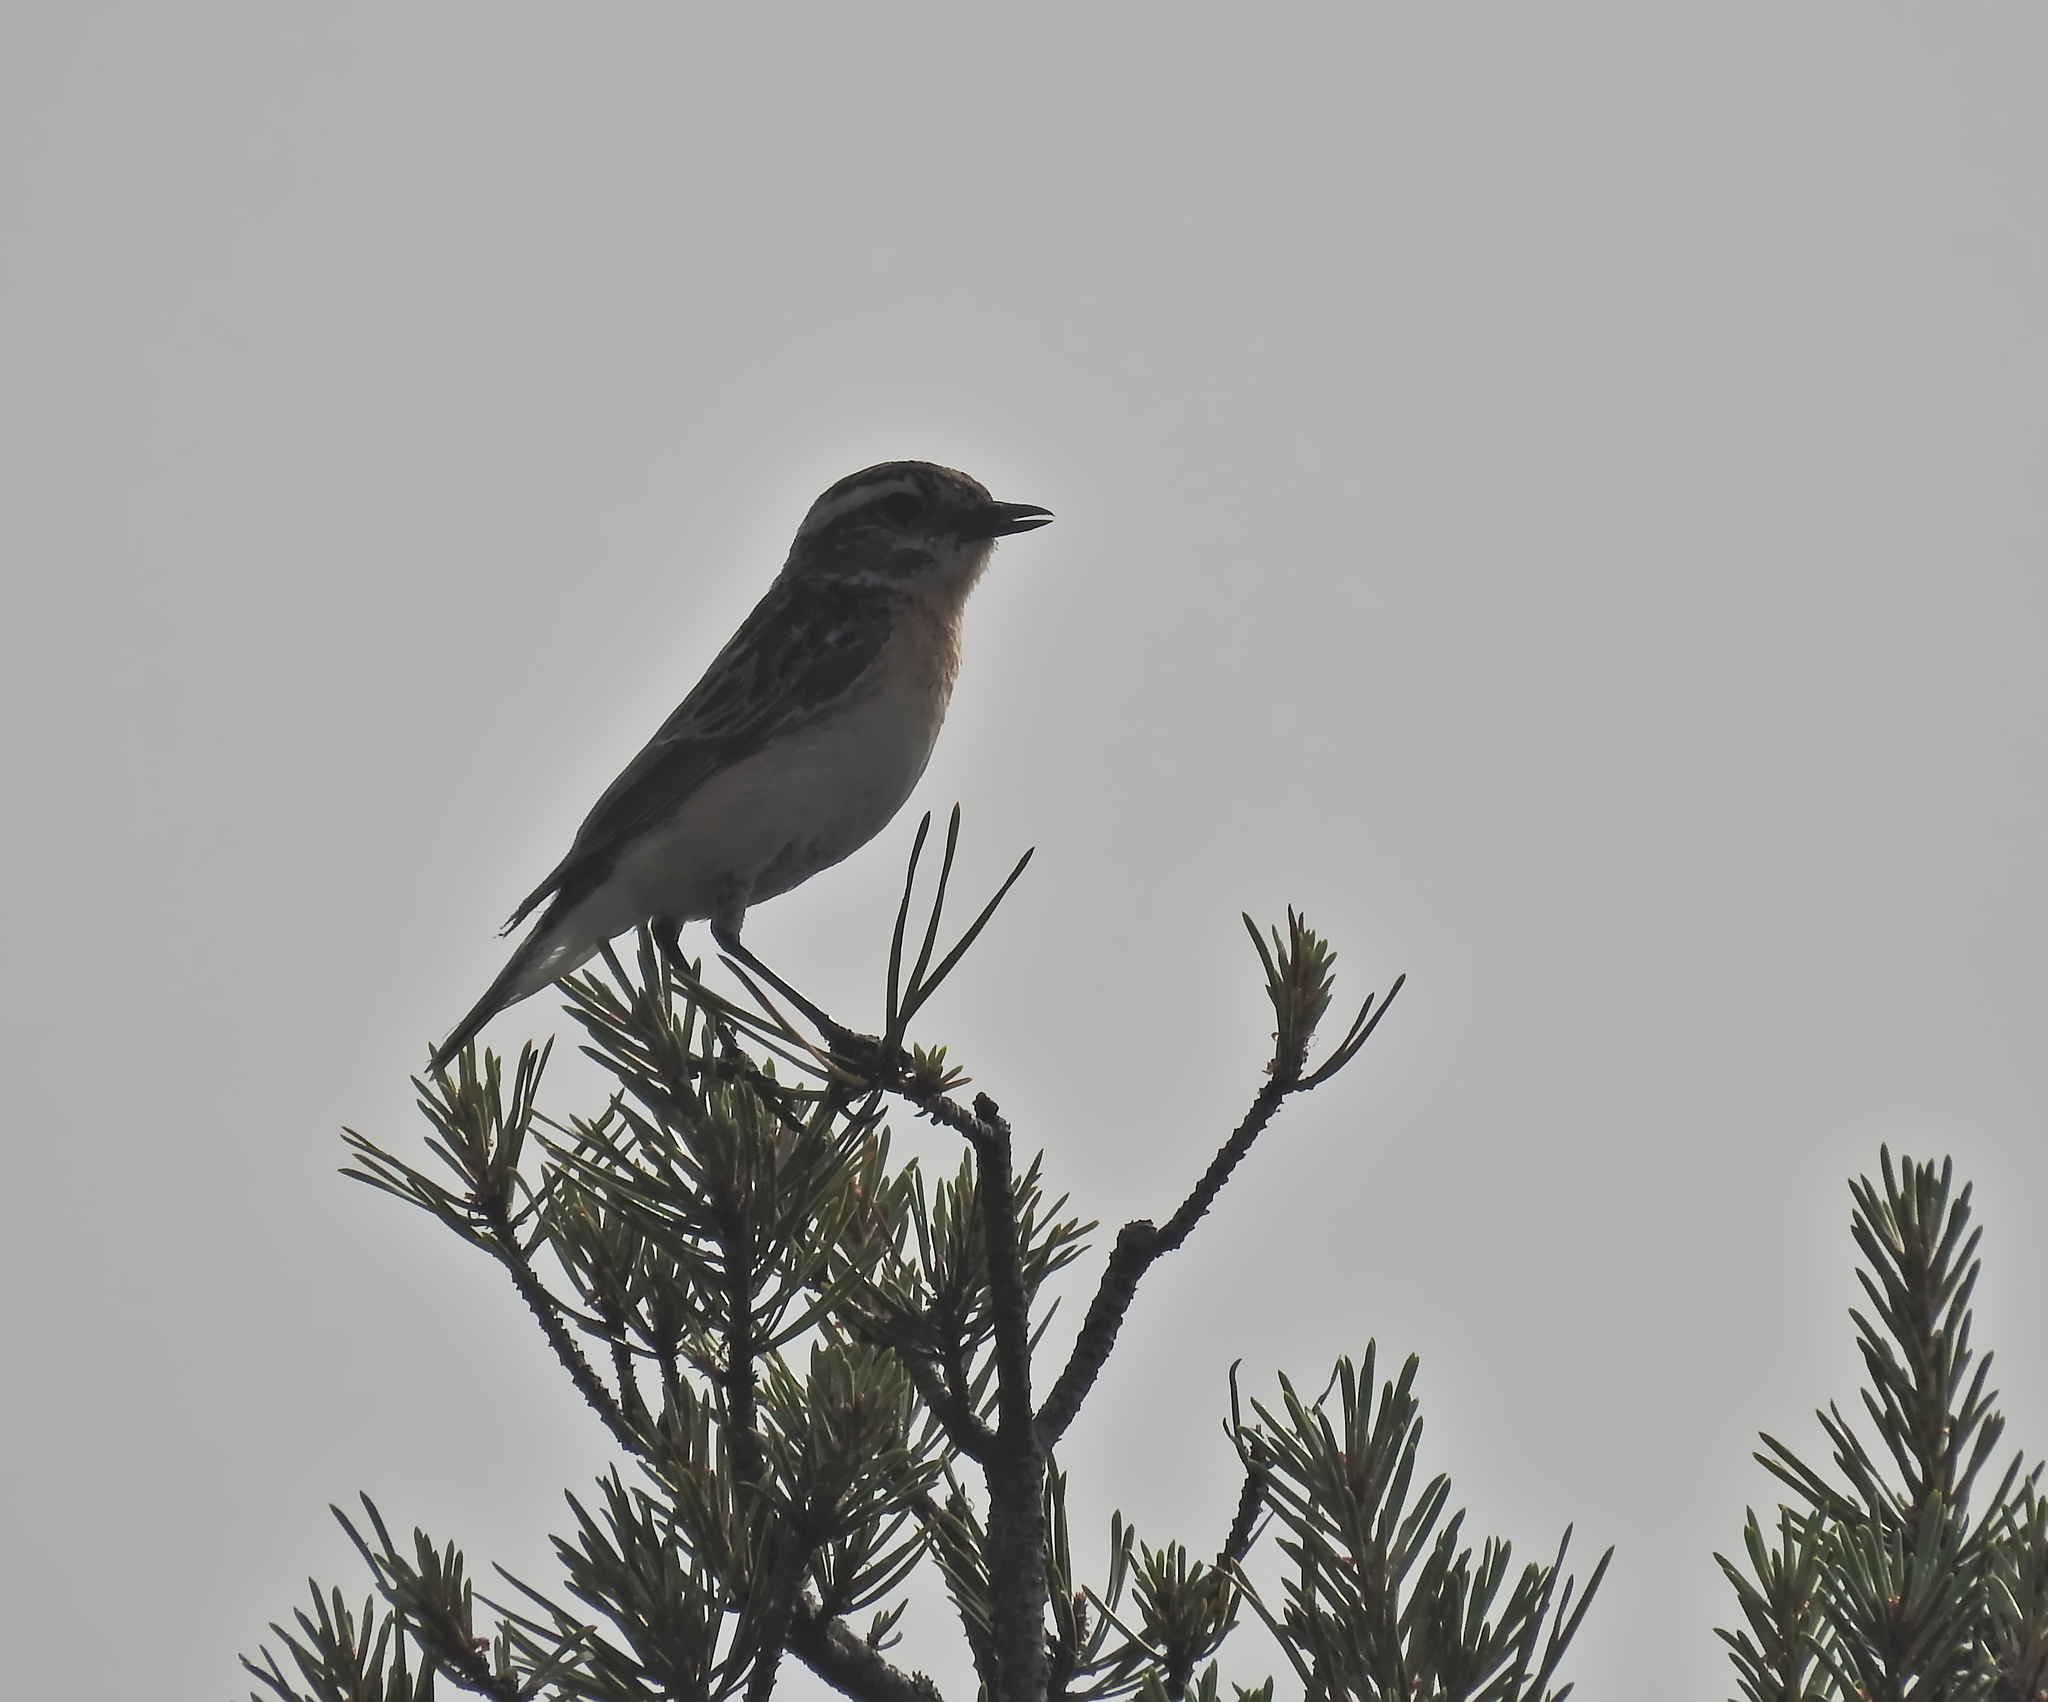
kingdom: Animalia
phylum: Chordata
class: Aves
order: Passeriformes
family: Muscicapidae
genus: Saxicola
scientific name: Saxicola rubetra
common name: Whinchat
